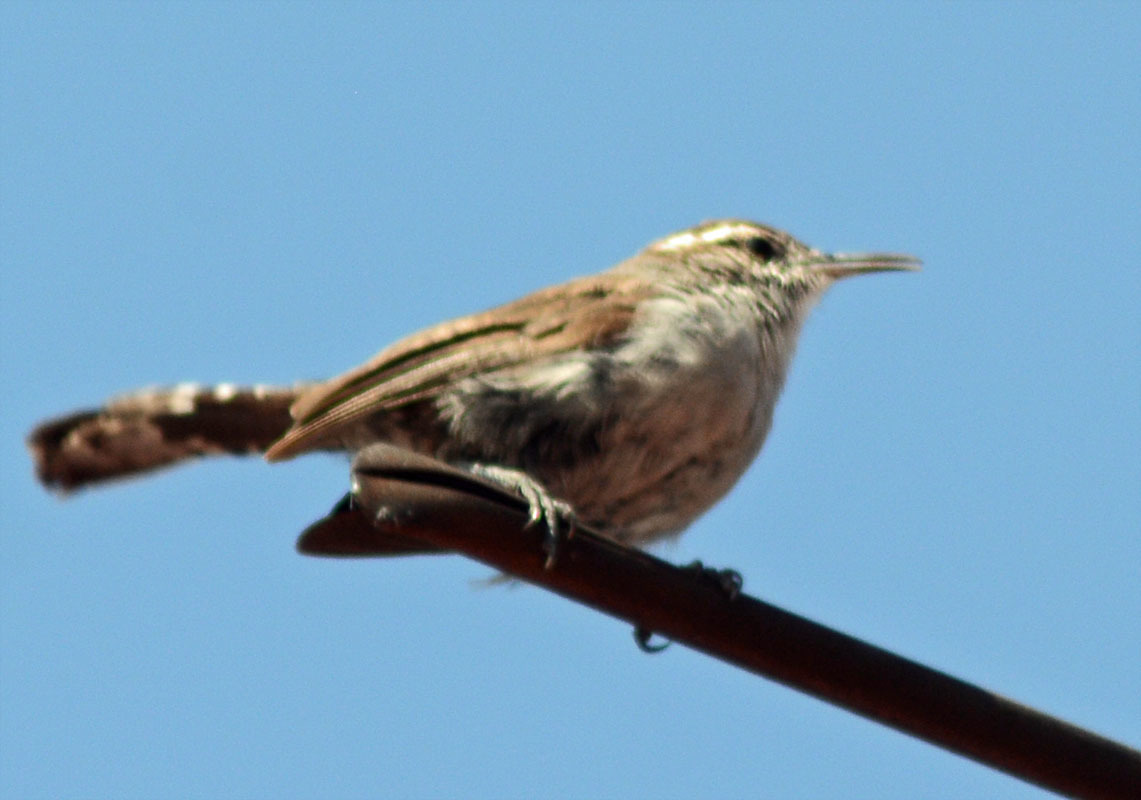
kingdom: Animalia
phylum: Chordata
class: Aves
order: Passeriformes
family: Troglodytidae
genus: Thryomanes
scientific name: Thryomanes bewickii
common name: Bewick's wren
